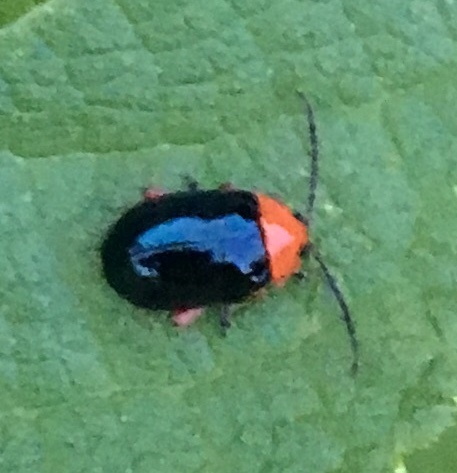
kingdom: Animalia
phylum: Arthropoda
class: Insecta
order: Coleoptera
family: Chrysomelidae
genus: Asphaera
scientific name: Asphaera lustrans
